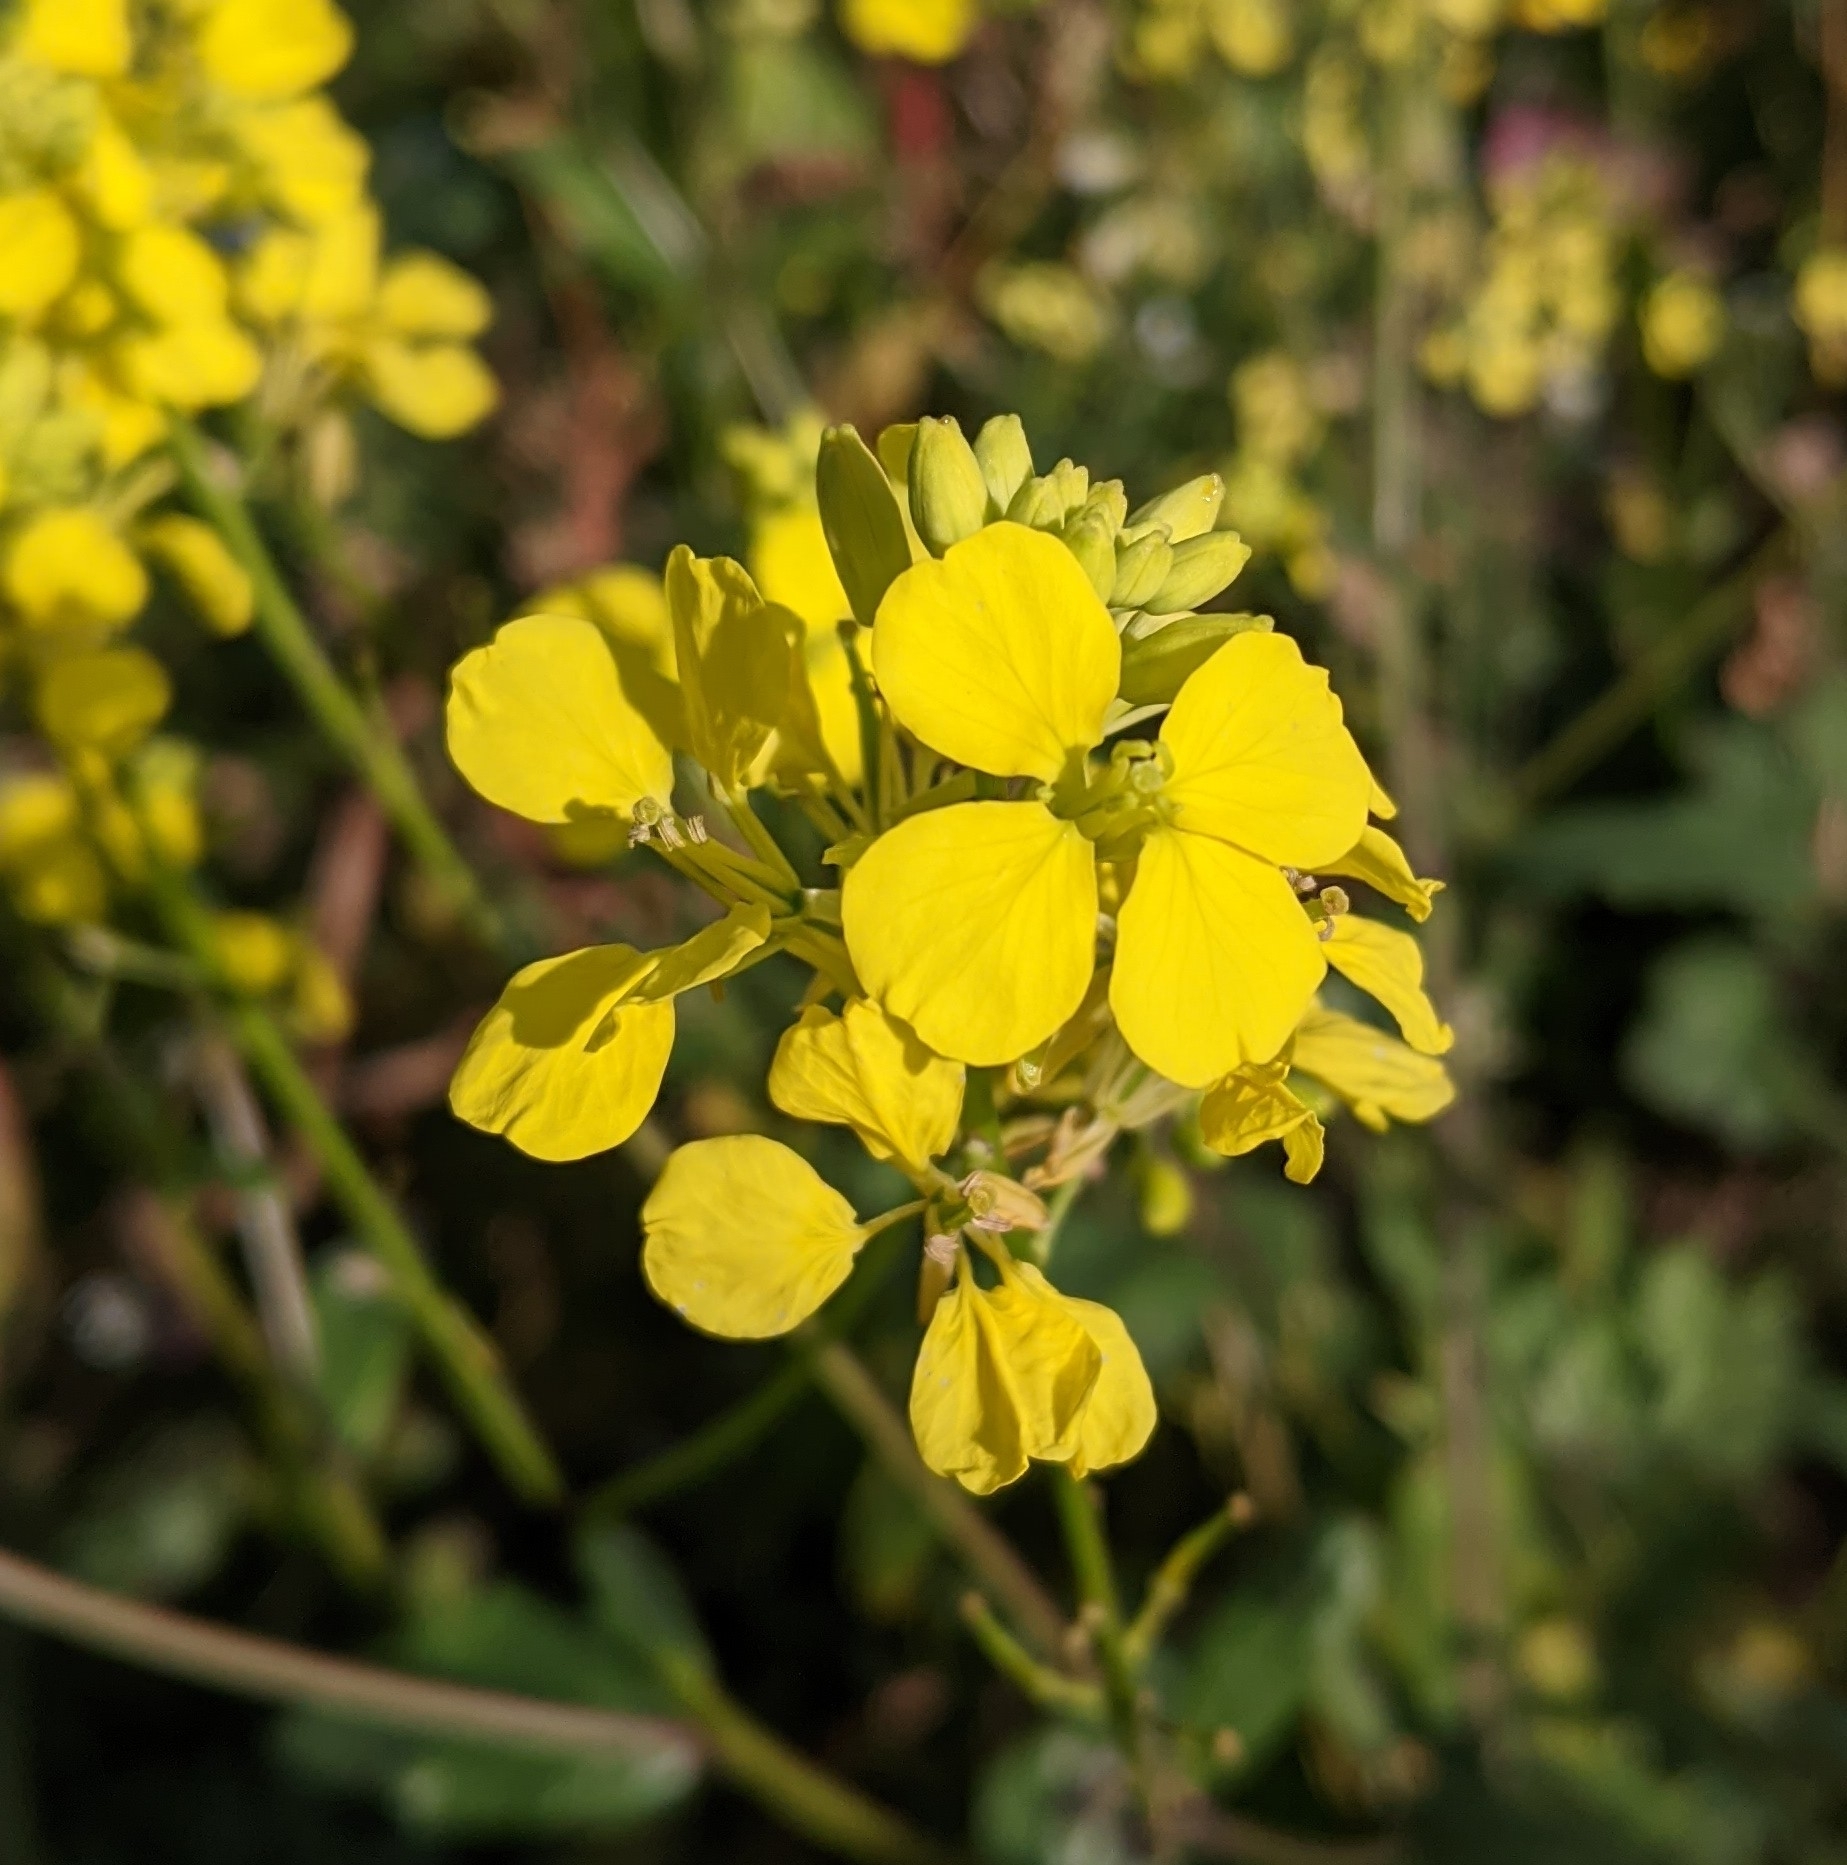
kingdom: Plantae
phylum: Tracheophyta
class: Magnoliopsida
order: Brassicales
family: Brassicaceae
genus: Sinapis
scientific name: Sinapis arvensis
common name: Charlock
